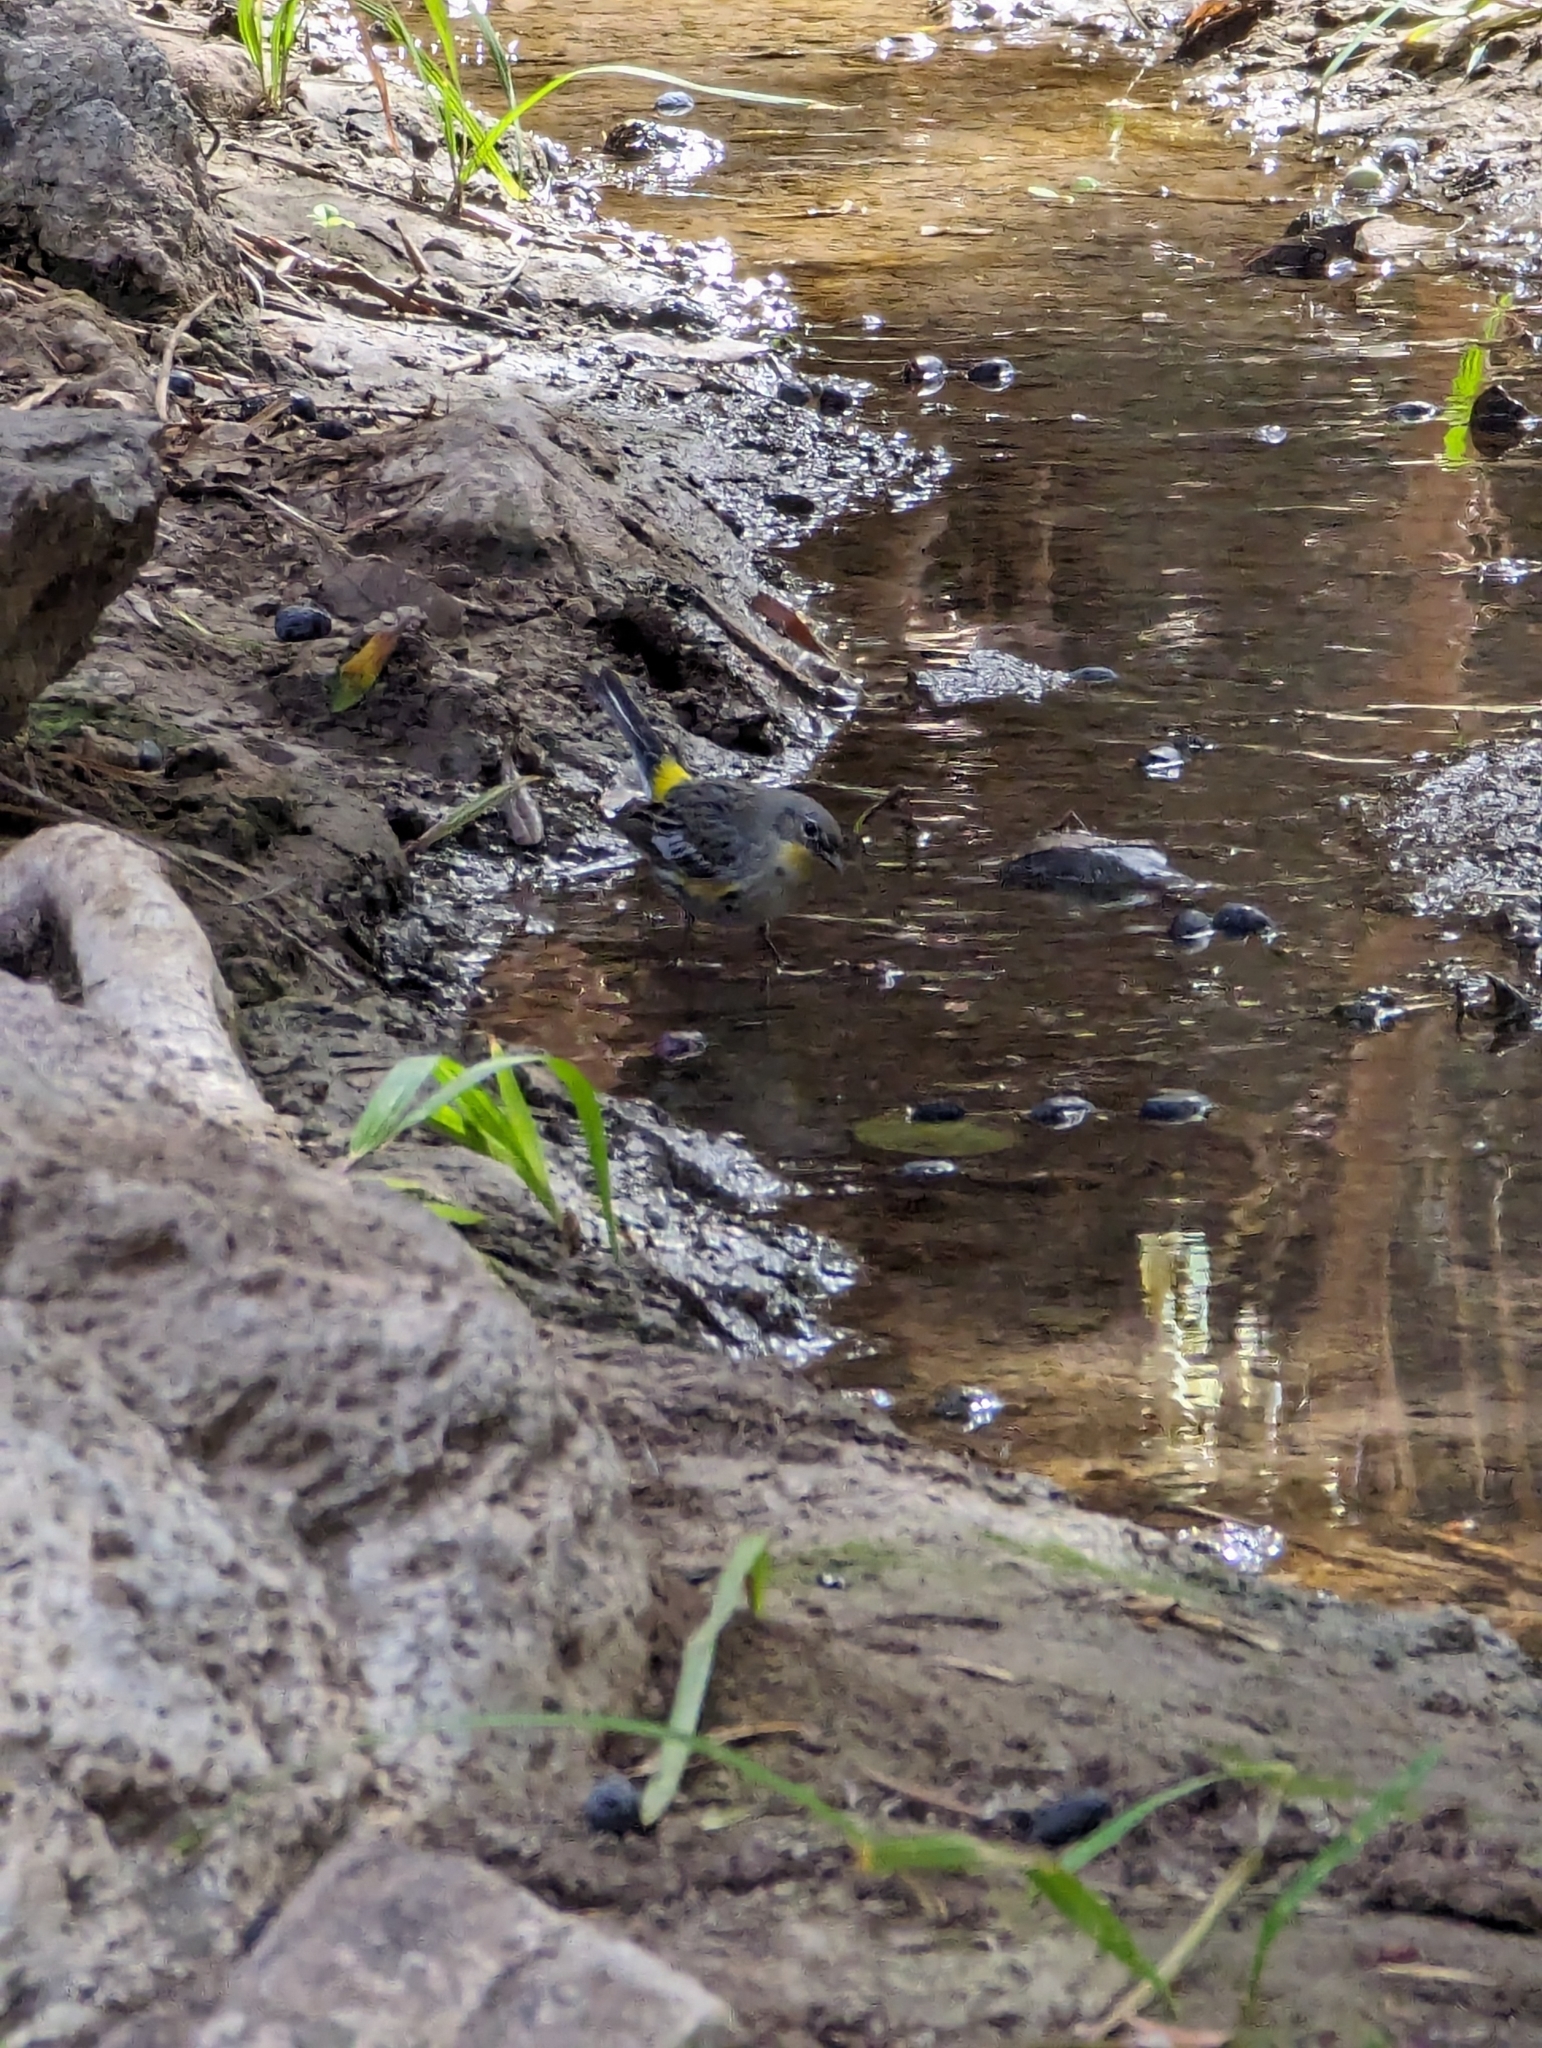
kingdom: Animalia
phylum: Chordata
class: Aves
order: Passeriformes
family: Parulidae
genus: Setophaga
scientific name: Setophaga coronata
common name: Myrtle warbler
